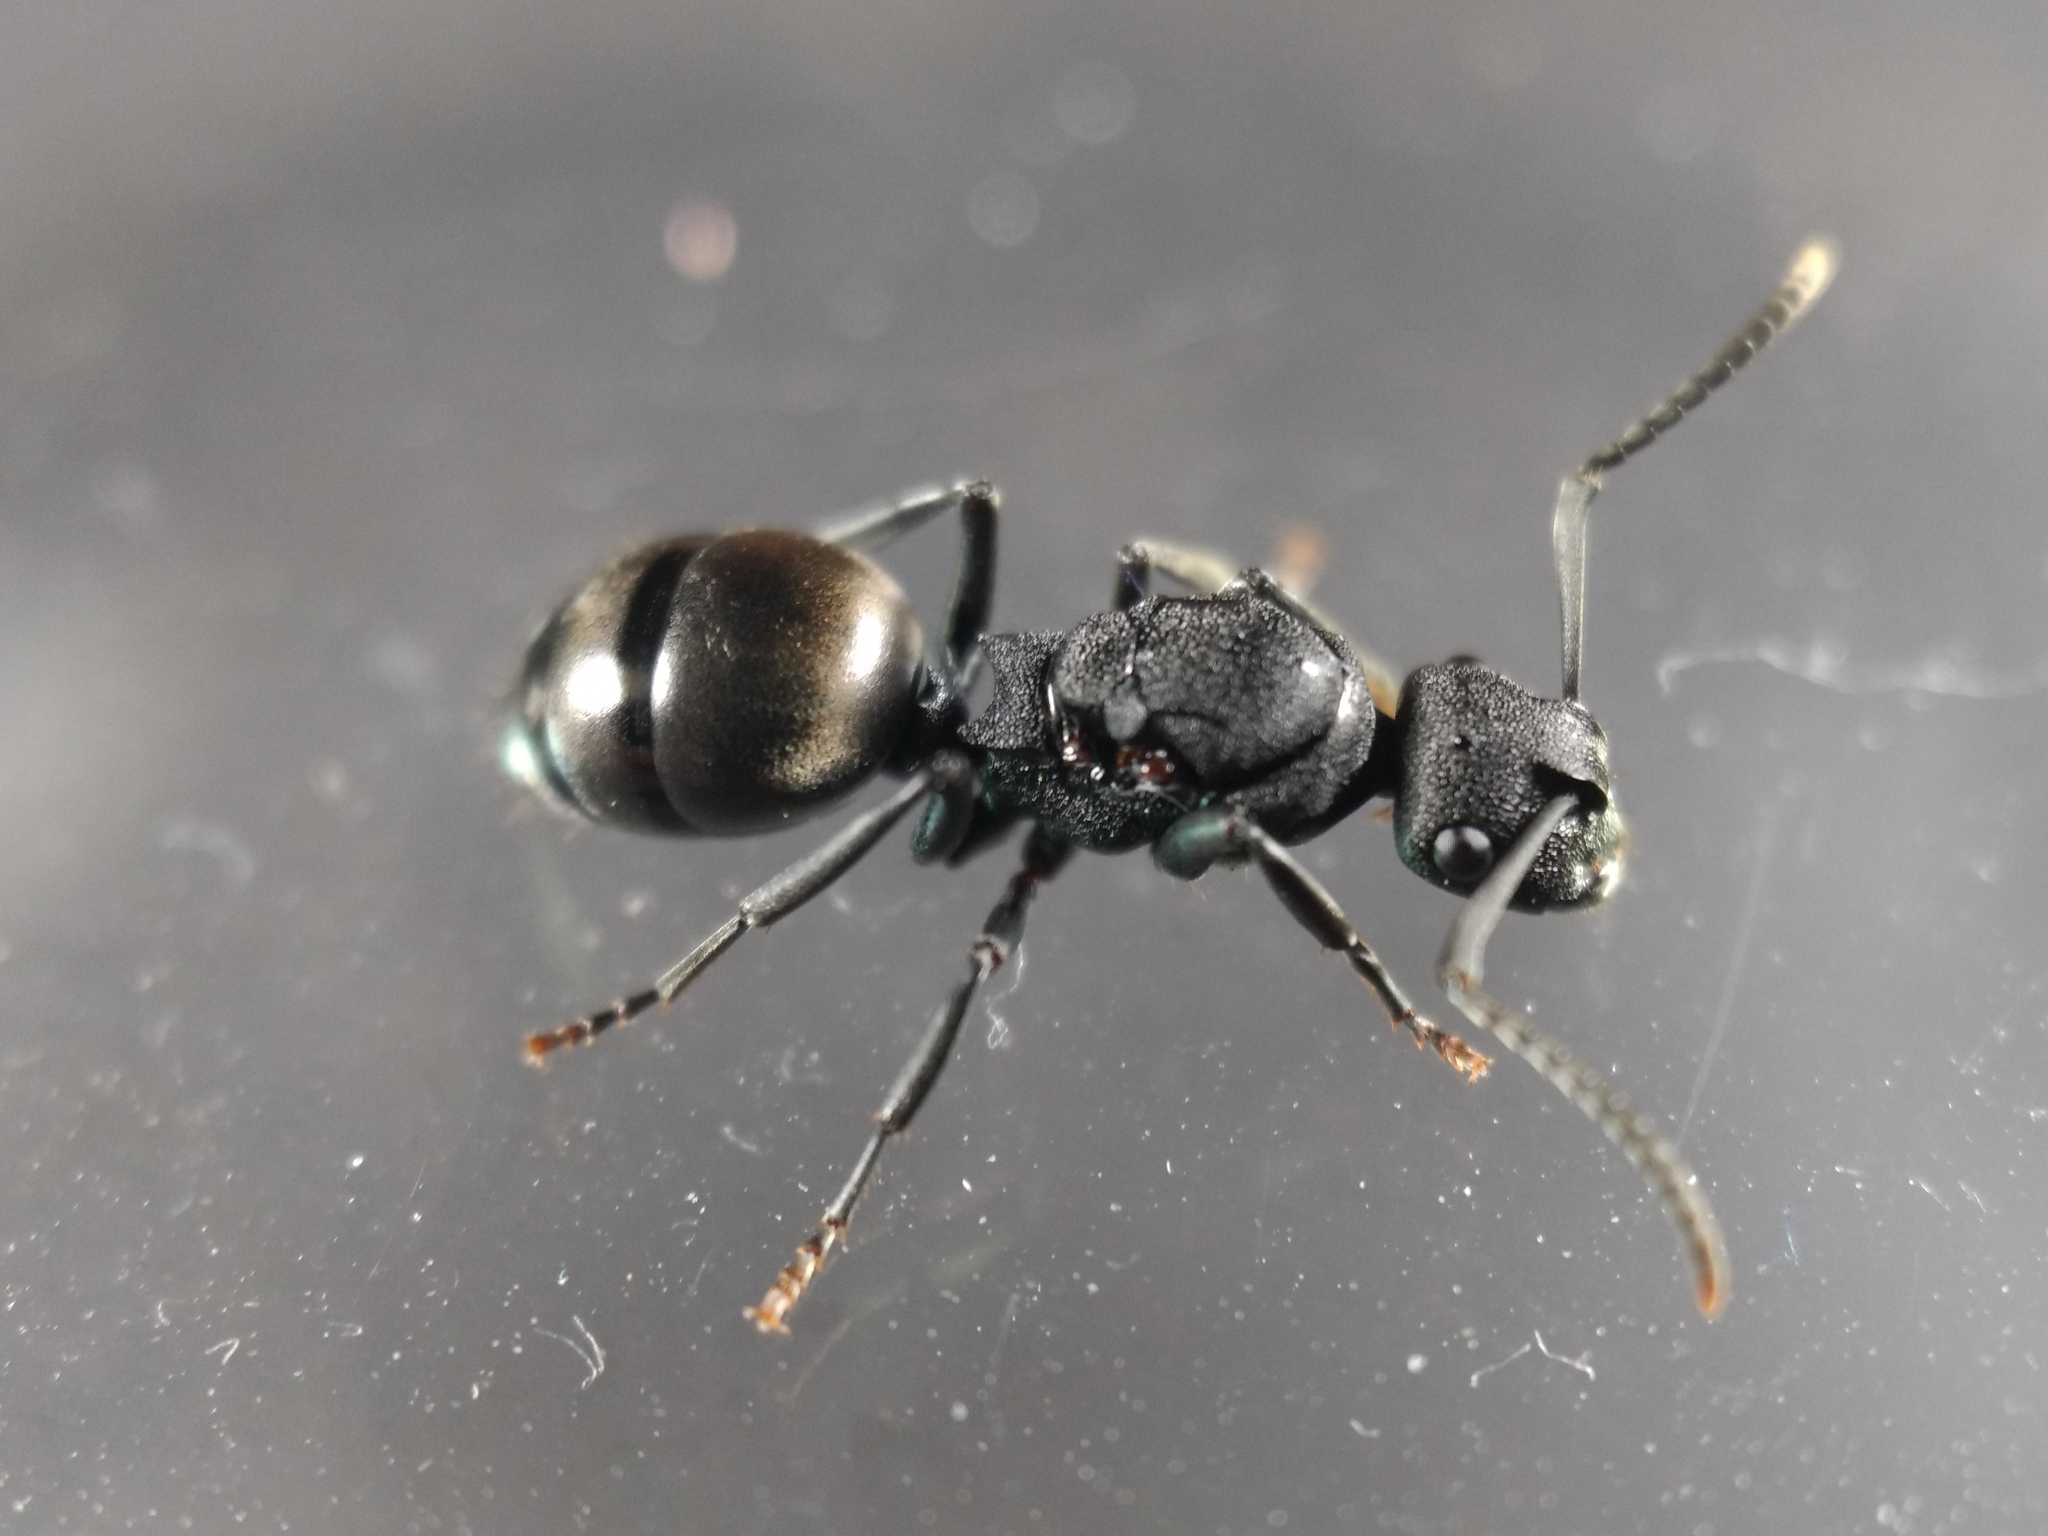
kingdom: Animalia
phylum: Arthropoda
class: Insecta
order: Hymenoptera
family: Formicidae
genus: Polyrhachis
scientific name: Polyrhachis phryne
